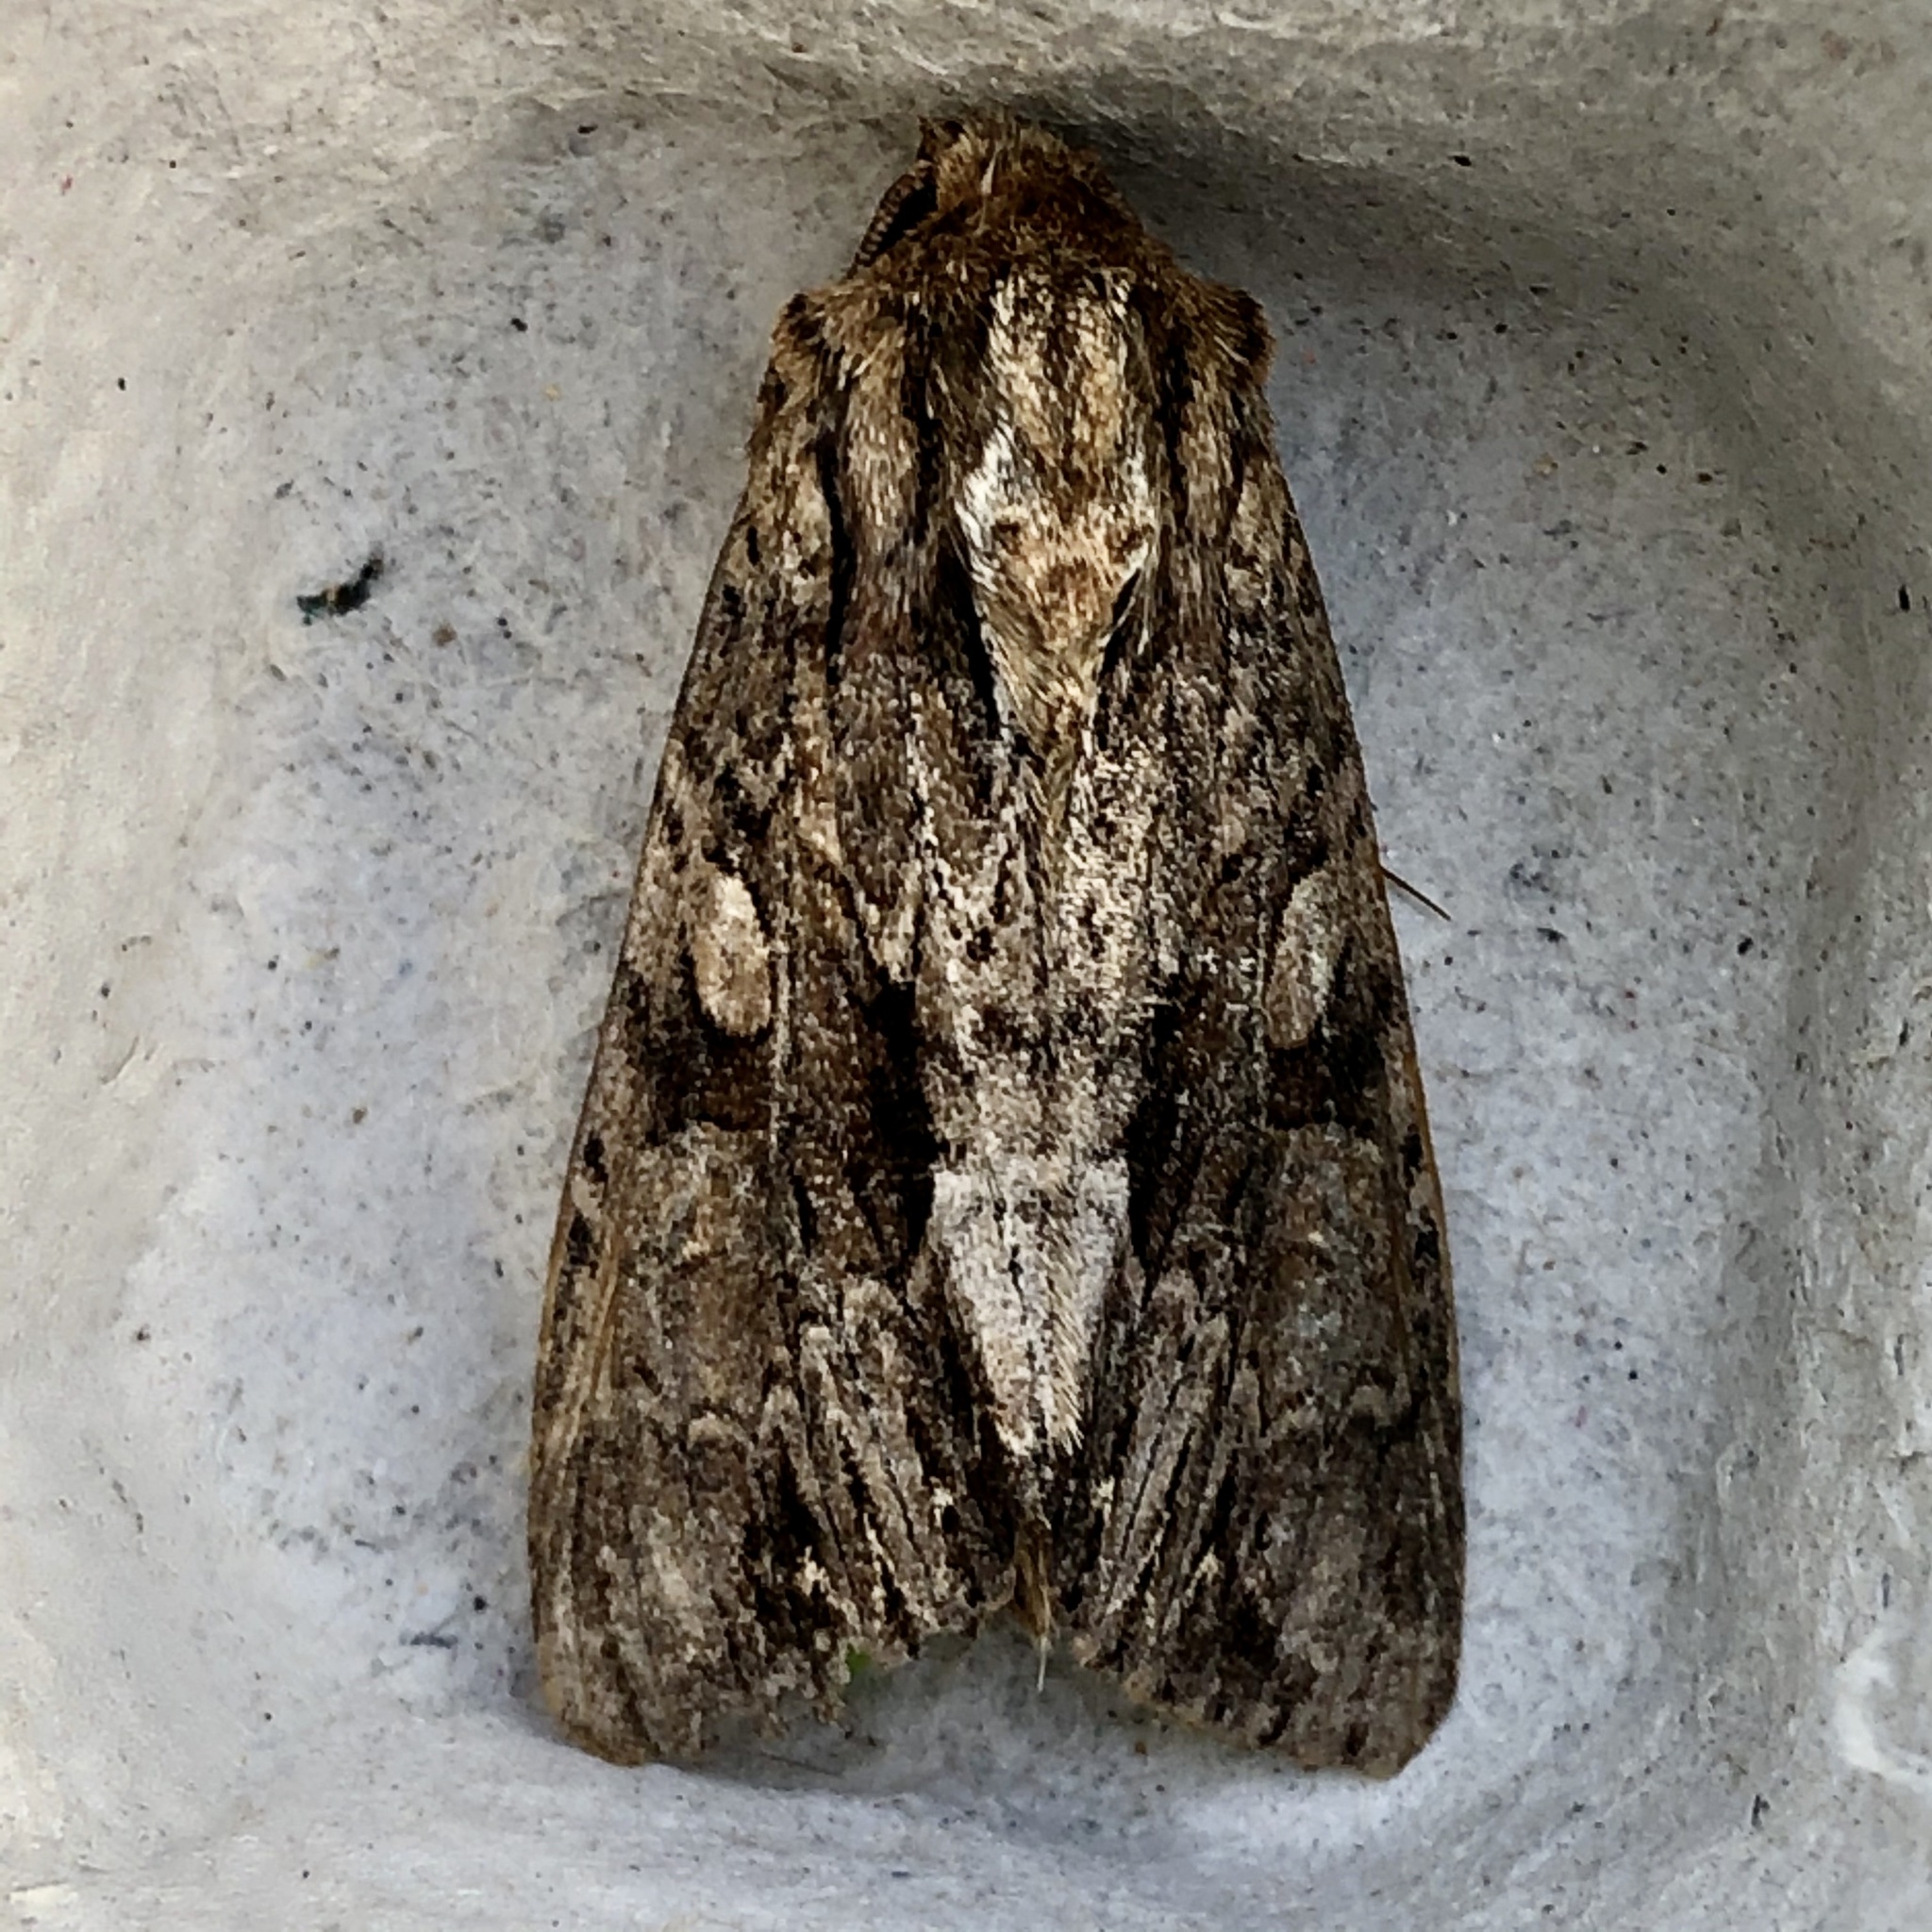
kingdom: Animalia
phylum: Arthropoda
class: Insecta
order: Lepidoptera
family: Noctuidae
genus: Apamea
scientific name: Apamea monoglypha
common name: Dark arches
